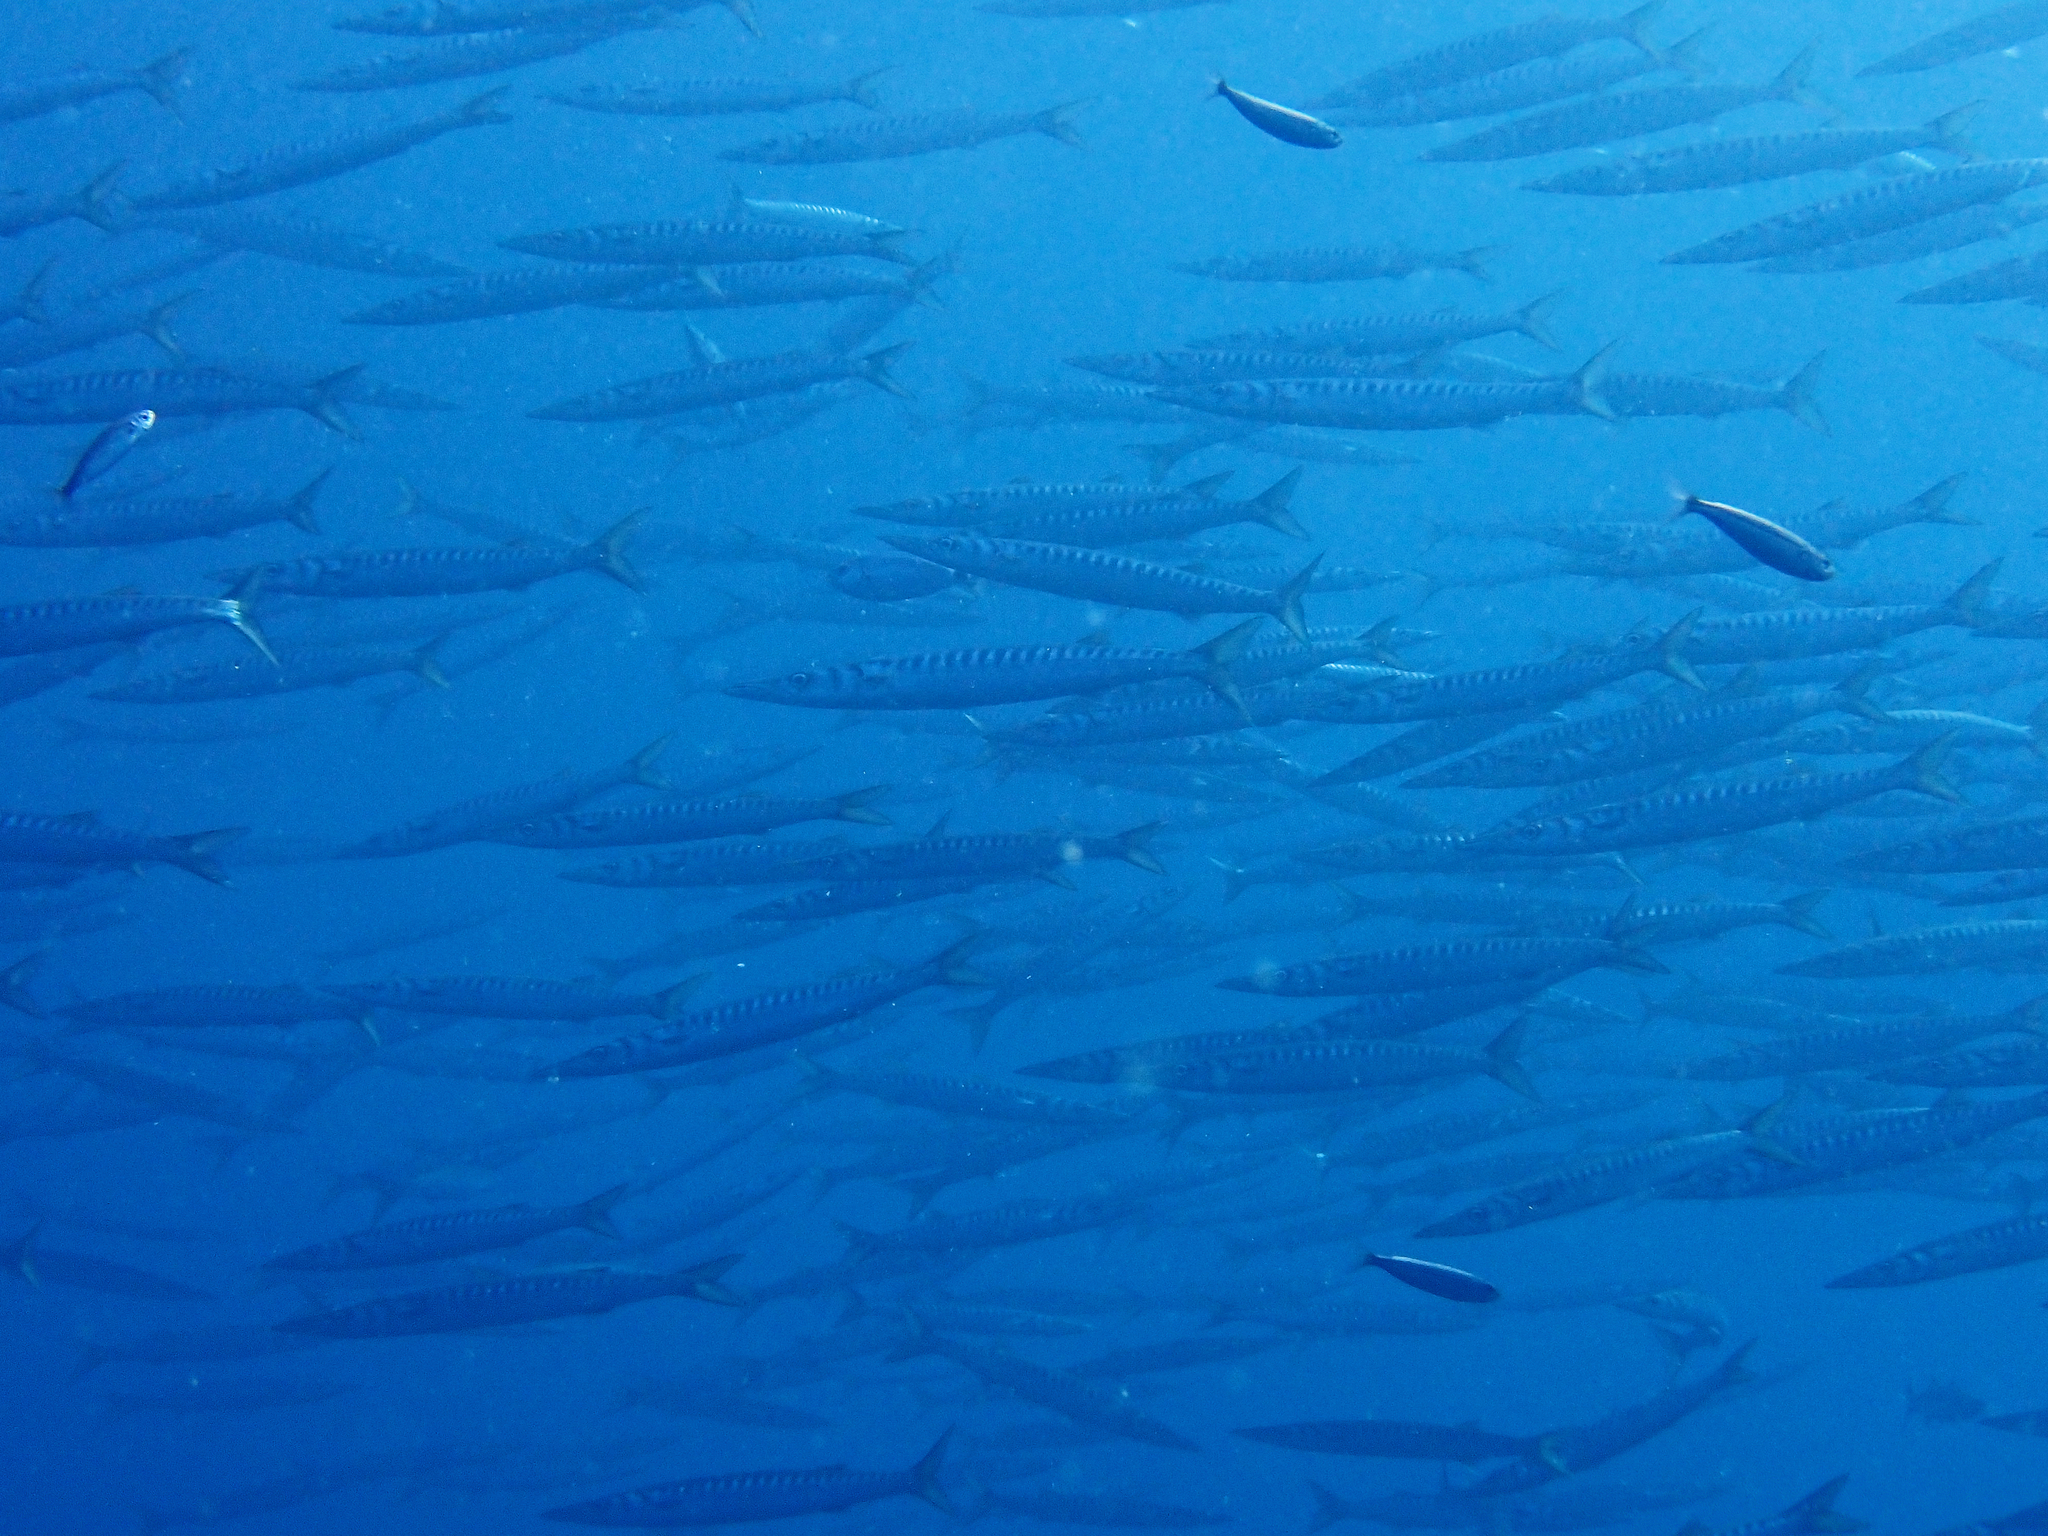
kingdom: Animalia
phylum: Chordata
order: Perciformes
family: Sphyraenidae
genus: Sphyraena
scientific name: Sphyraena viridensis
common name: Yellowmouth barracuda
